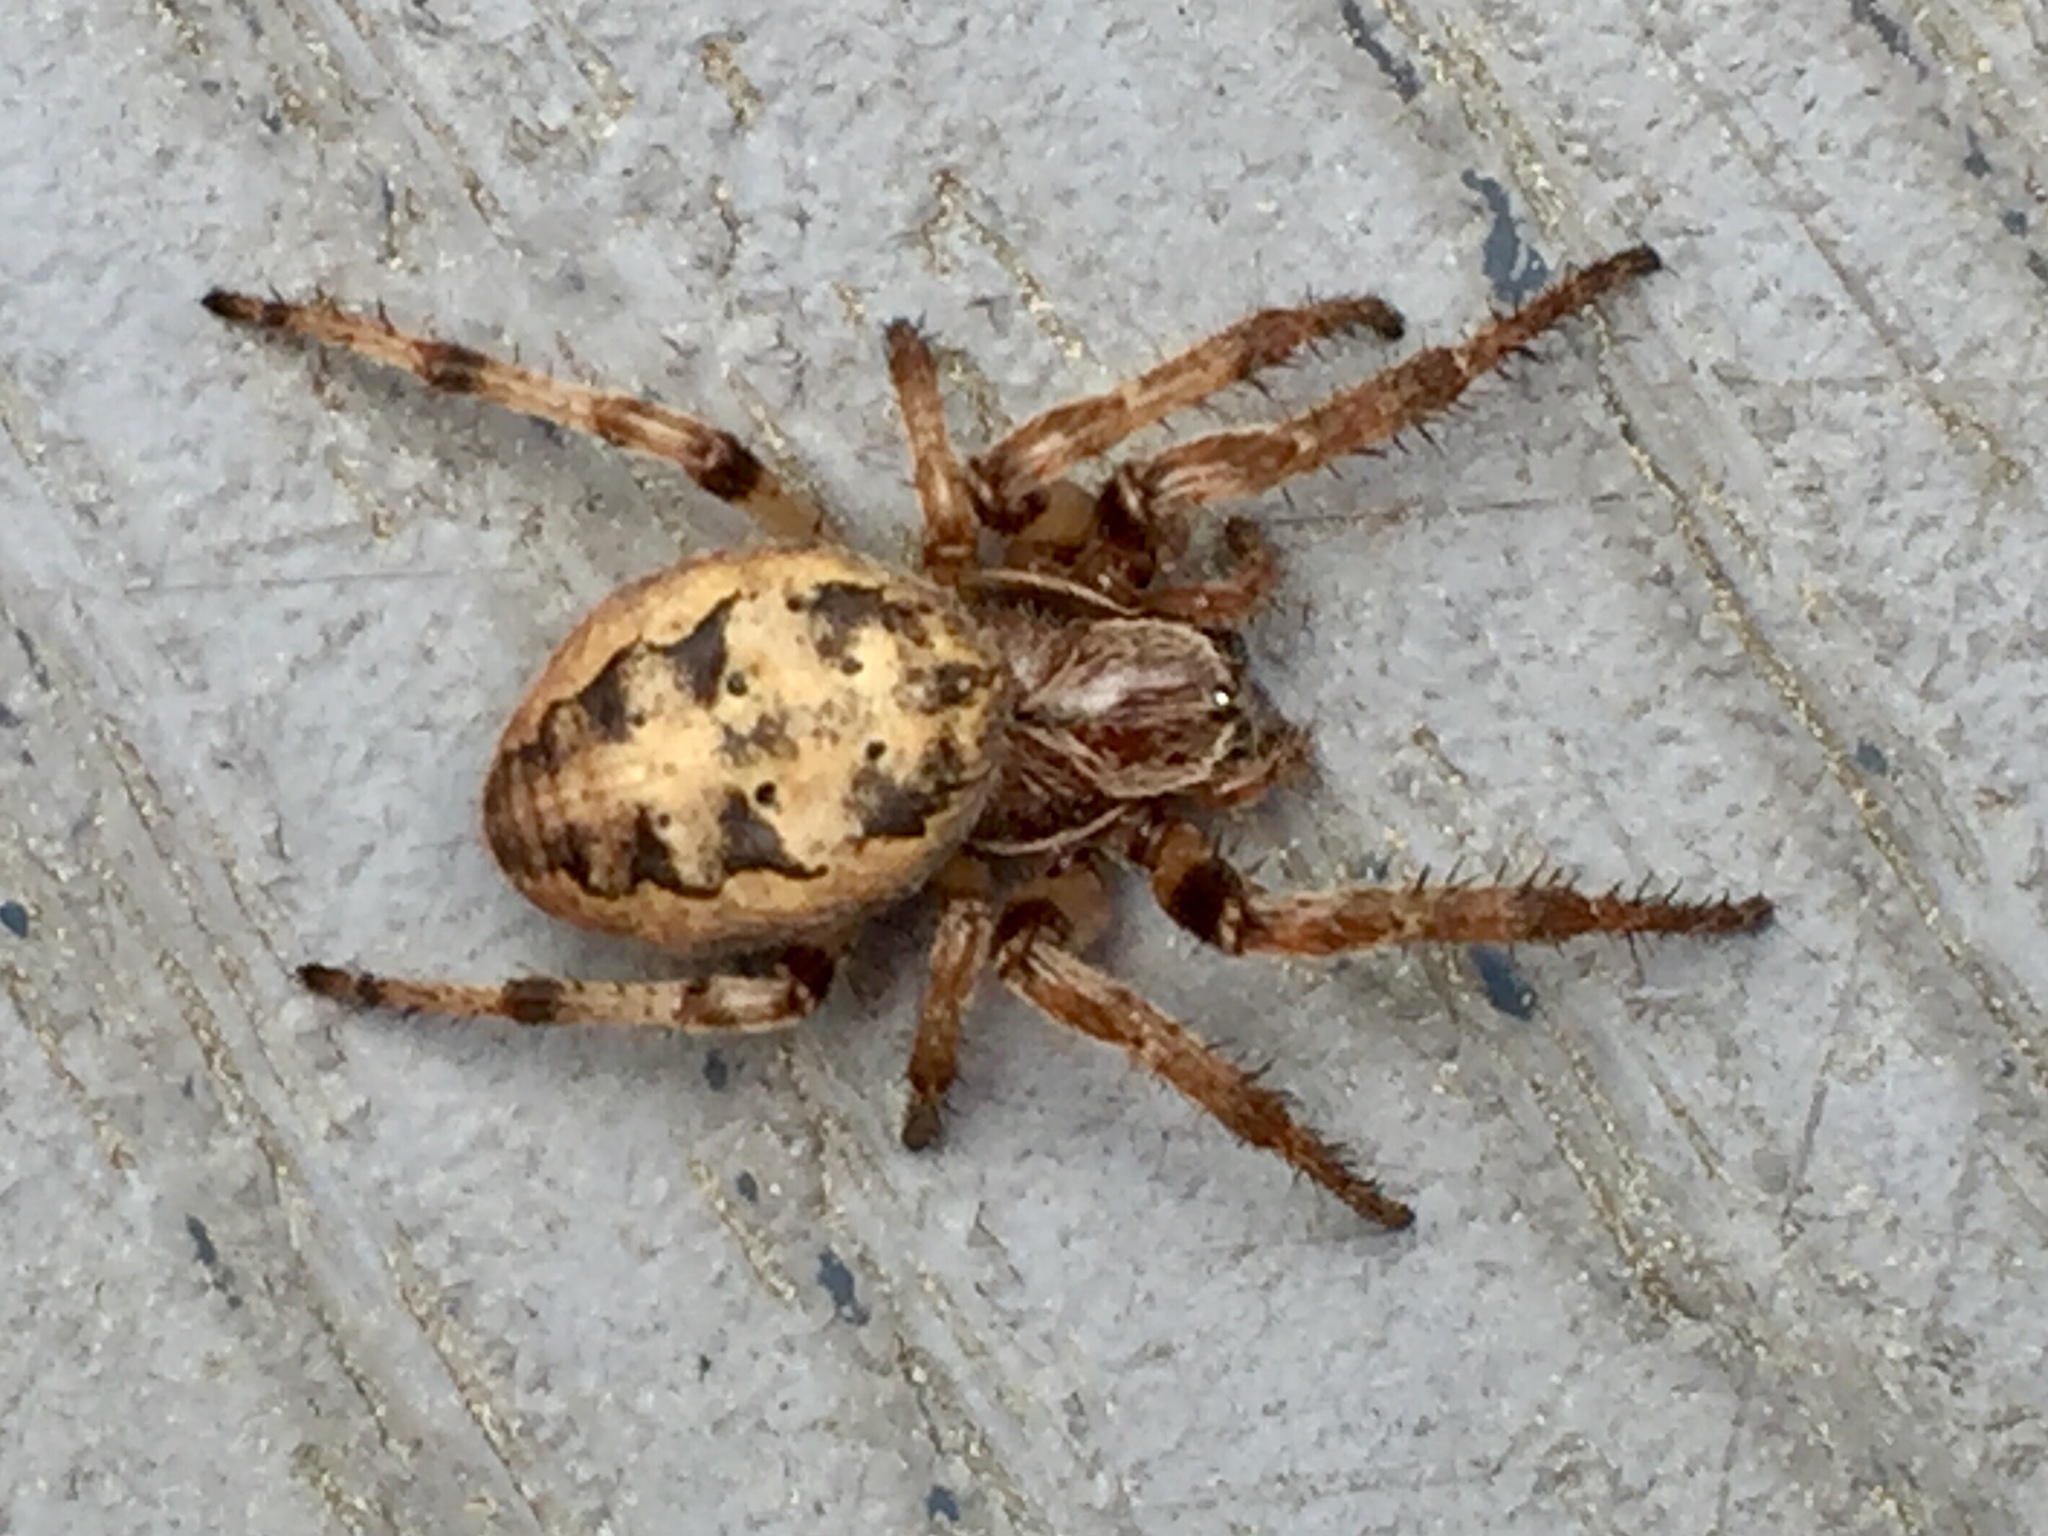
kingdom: Animalia
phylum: Arthropoda
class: Arachnida
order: Araneae
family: Araneidae
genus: Larinioides
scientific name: Larinioides cornutus
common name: Furrow orbweaver
